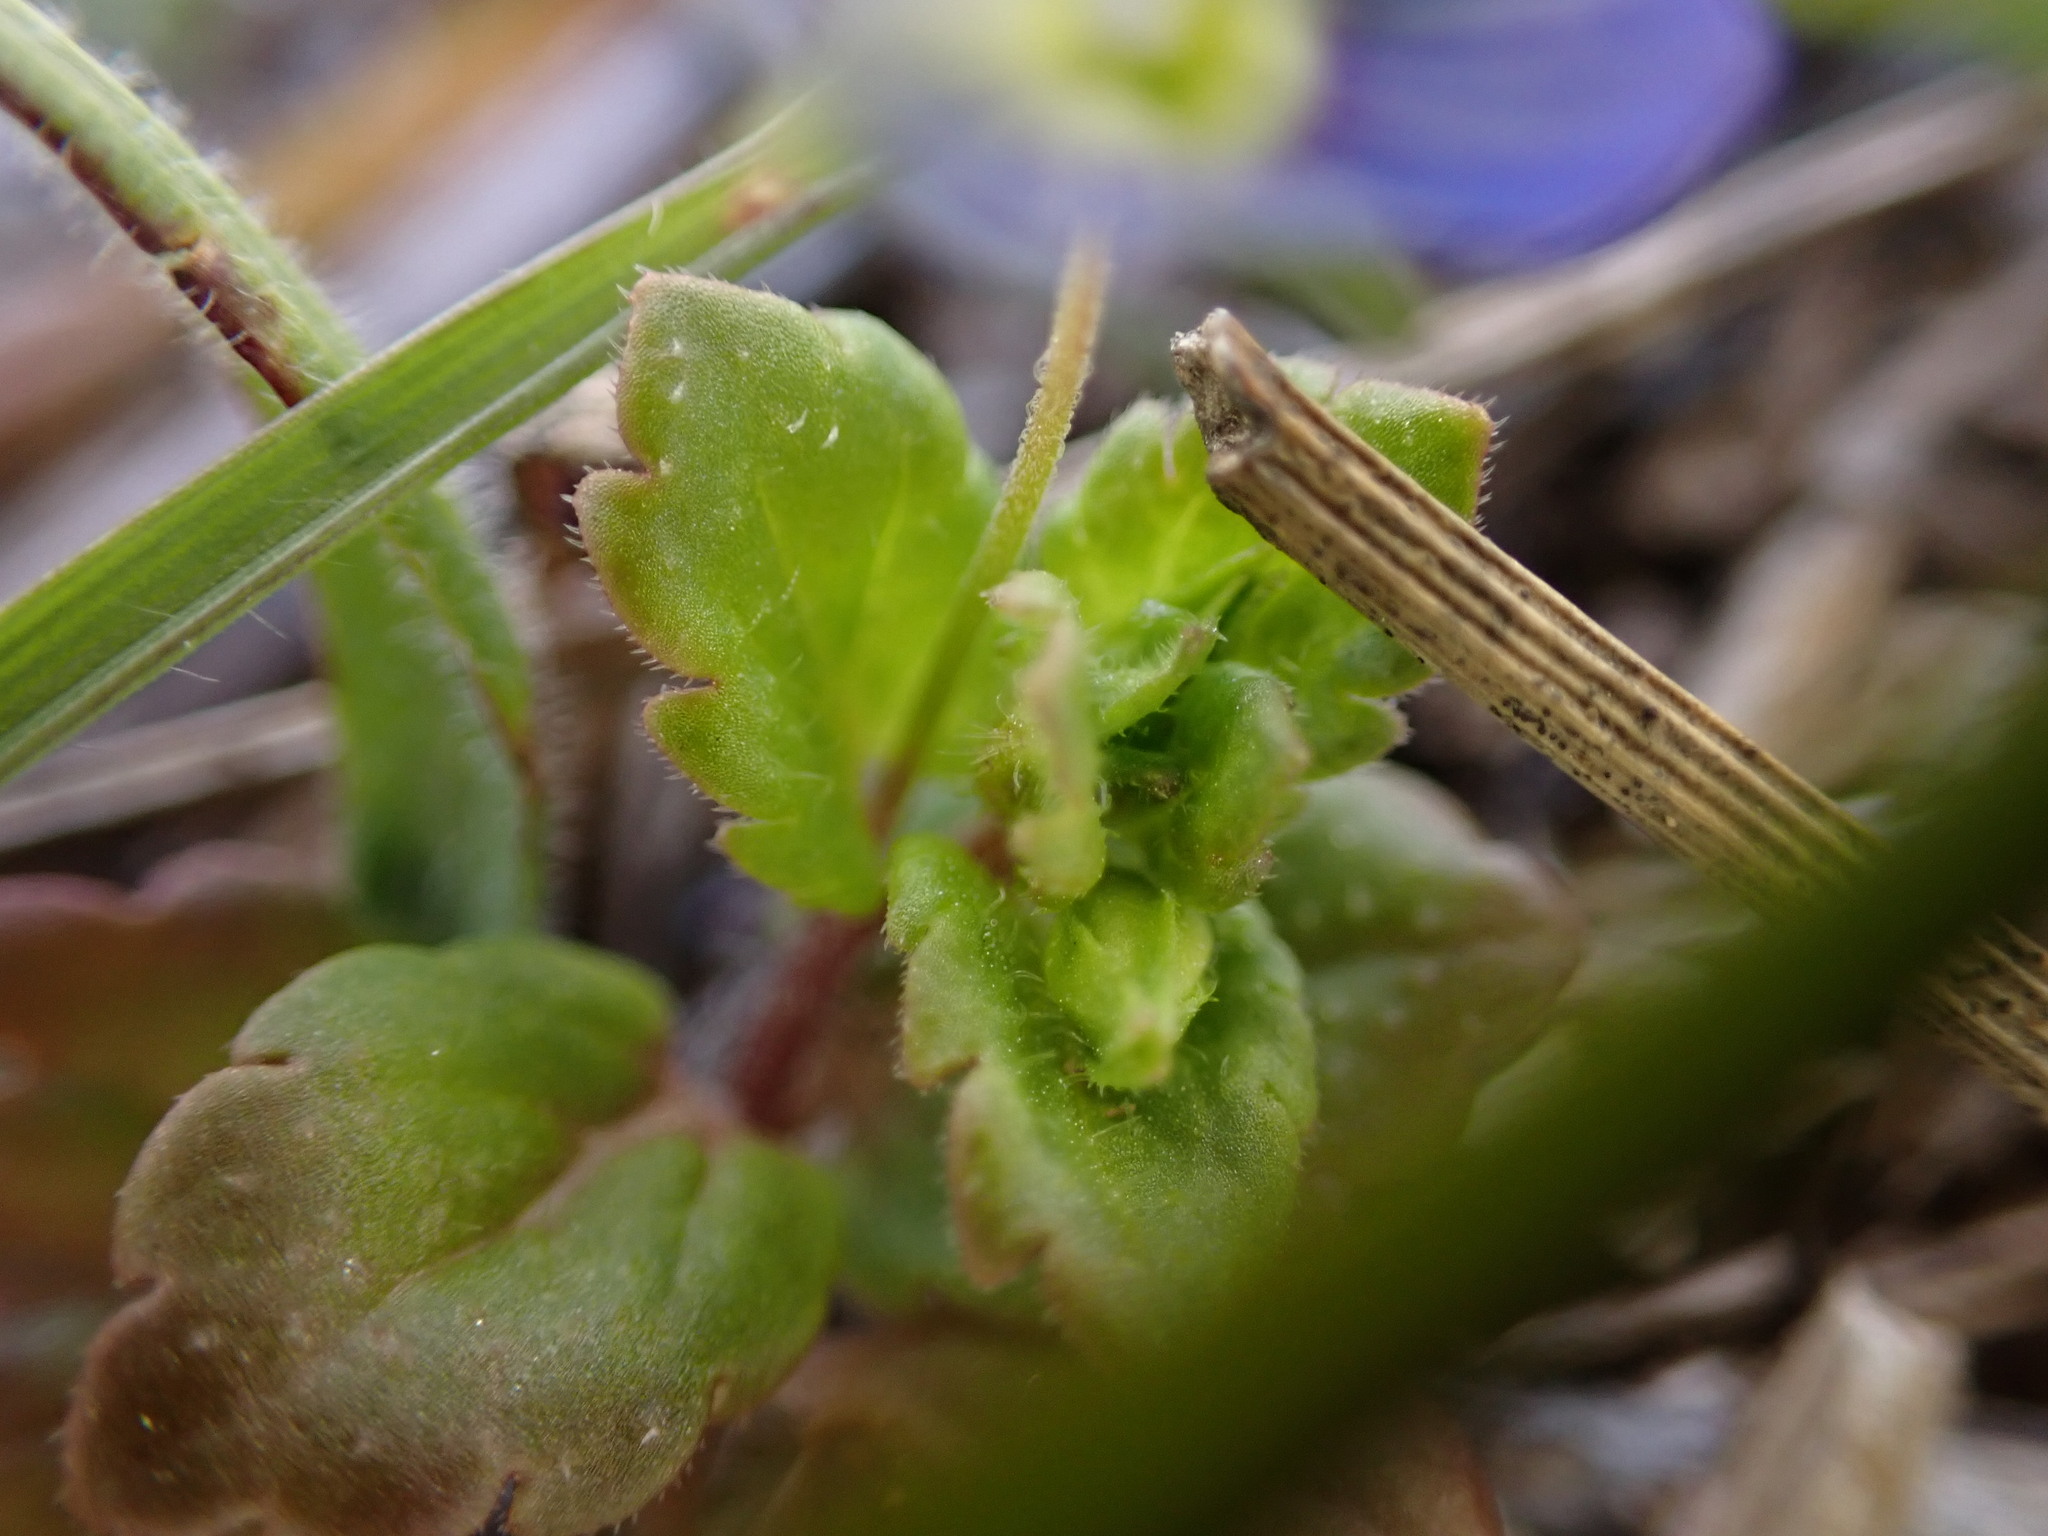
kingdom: Plantae
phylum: Tracheophyta
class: Magnoliopsida
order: Lamiales
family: Plantaginaceae
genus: Veronica
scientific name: Veronica persica
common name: Common field-speedwell
